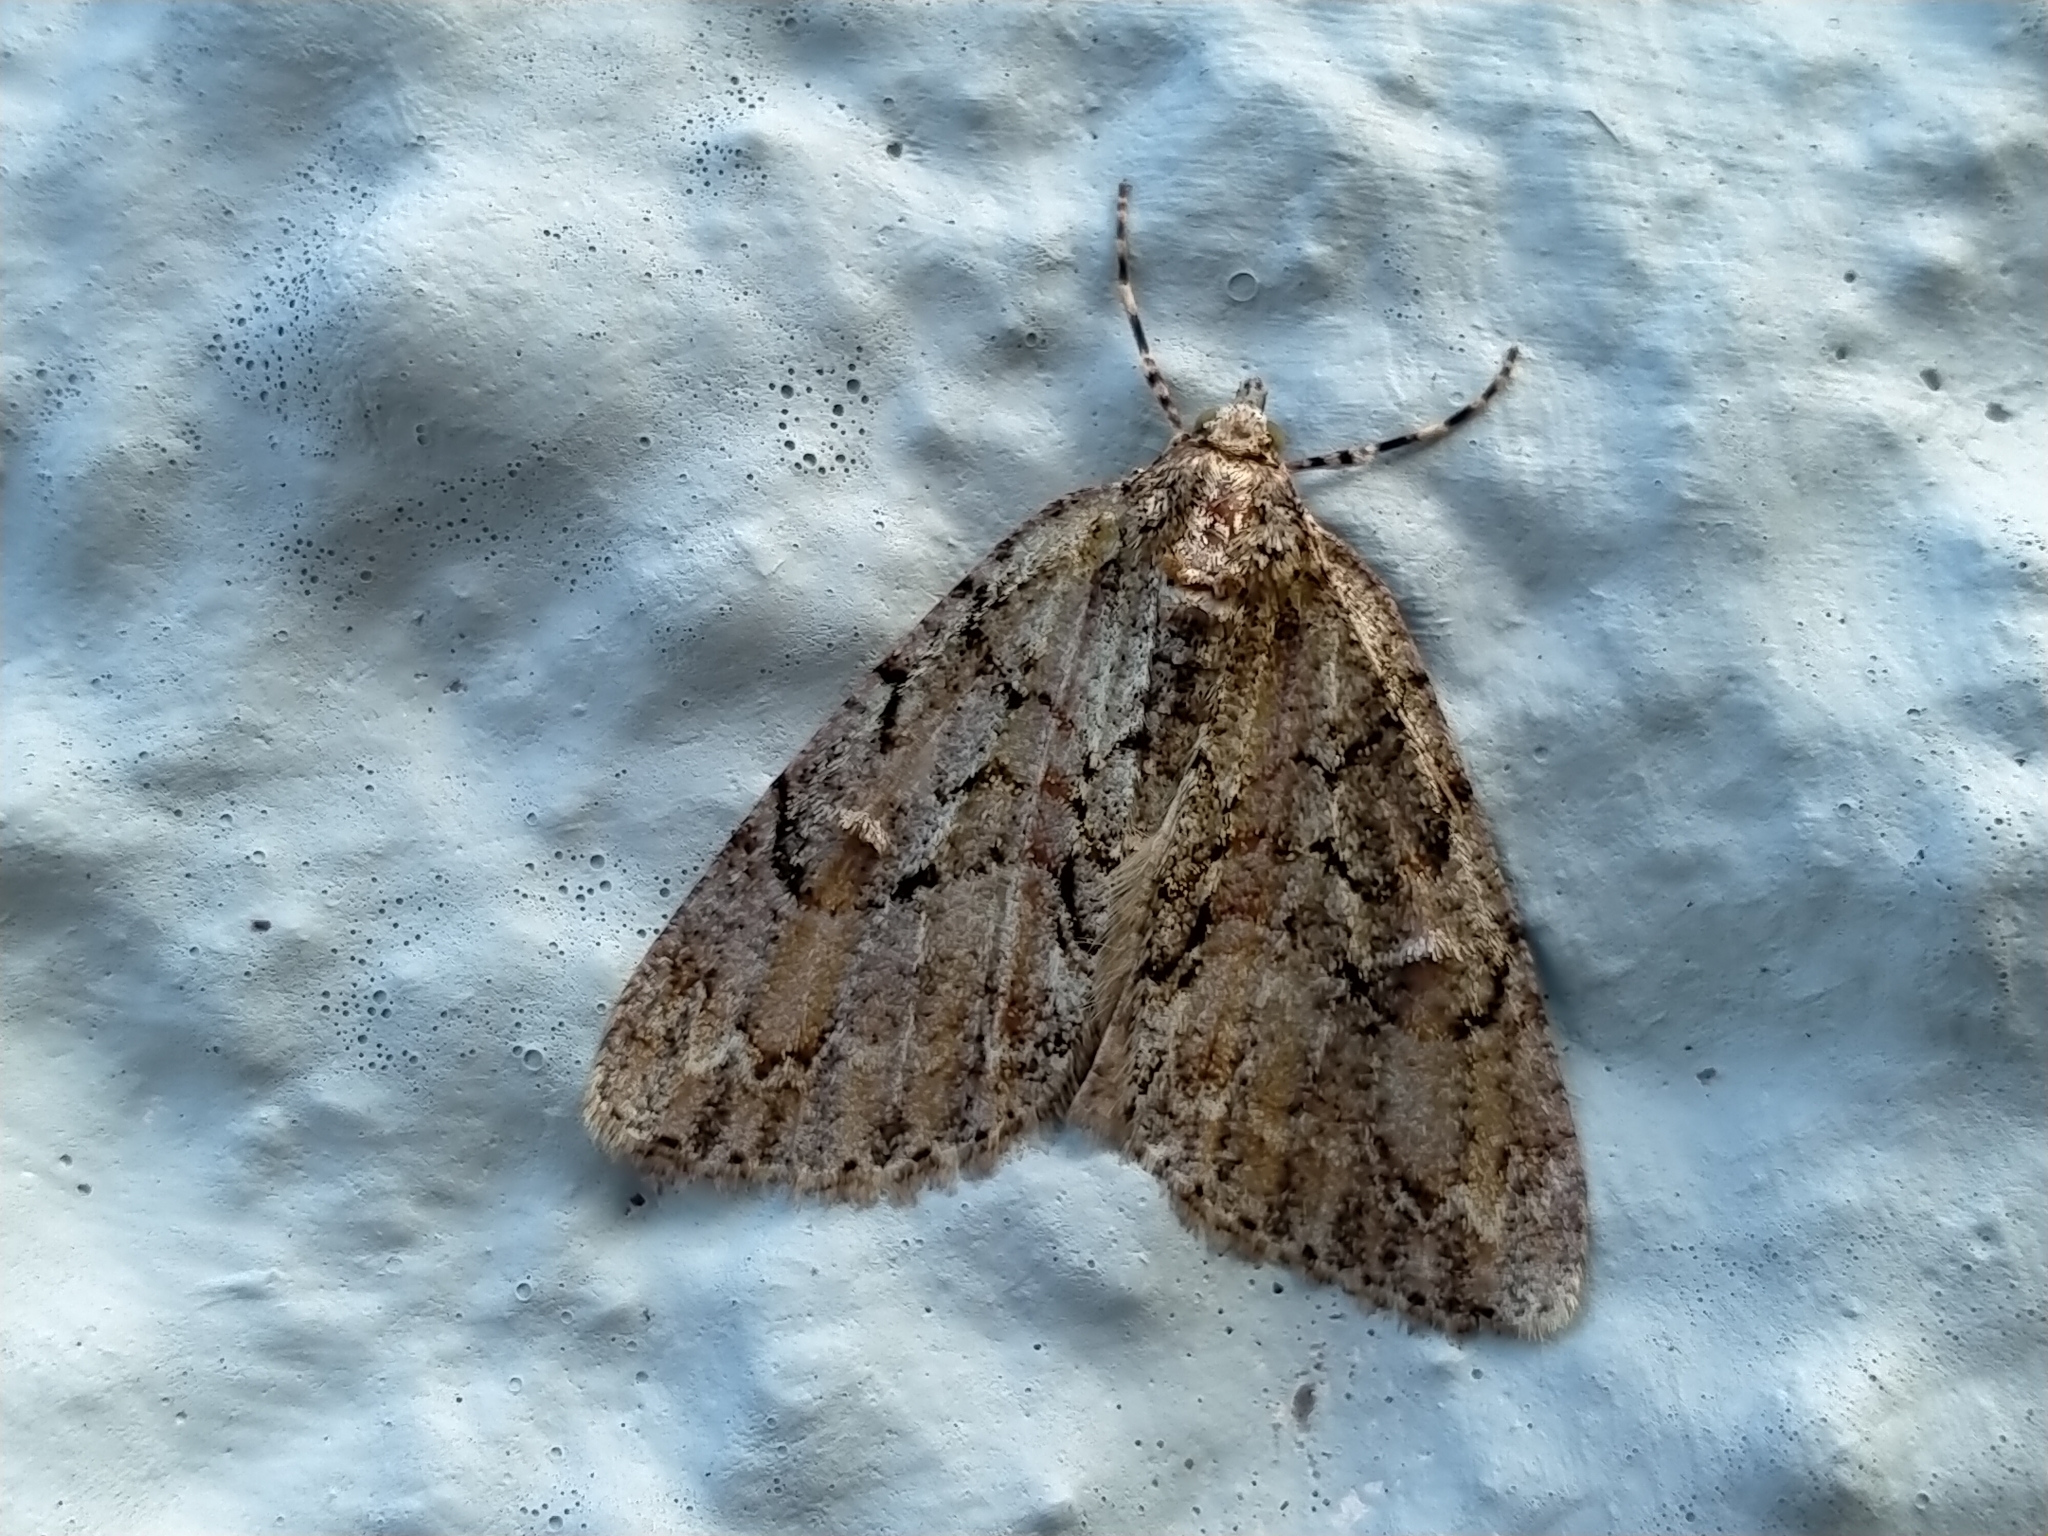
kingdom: Animalia
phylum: Arthropoda
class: Insecta
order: Lepidoptera
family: Geometridae
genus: Pseudocoremia
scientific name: Pseudocoremia suavis
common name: Common forest looper
